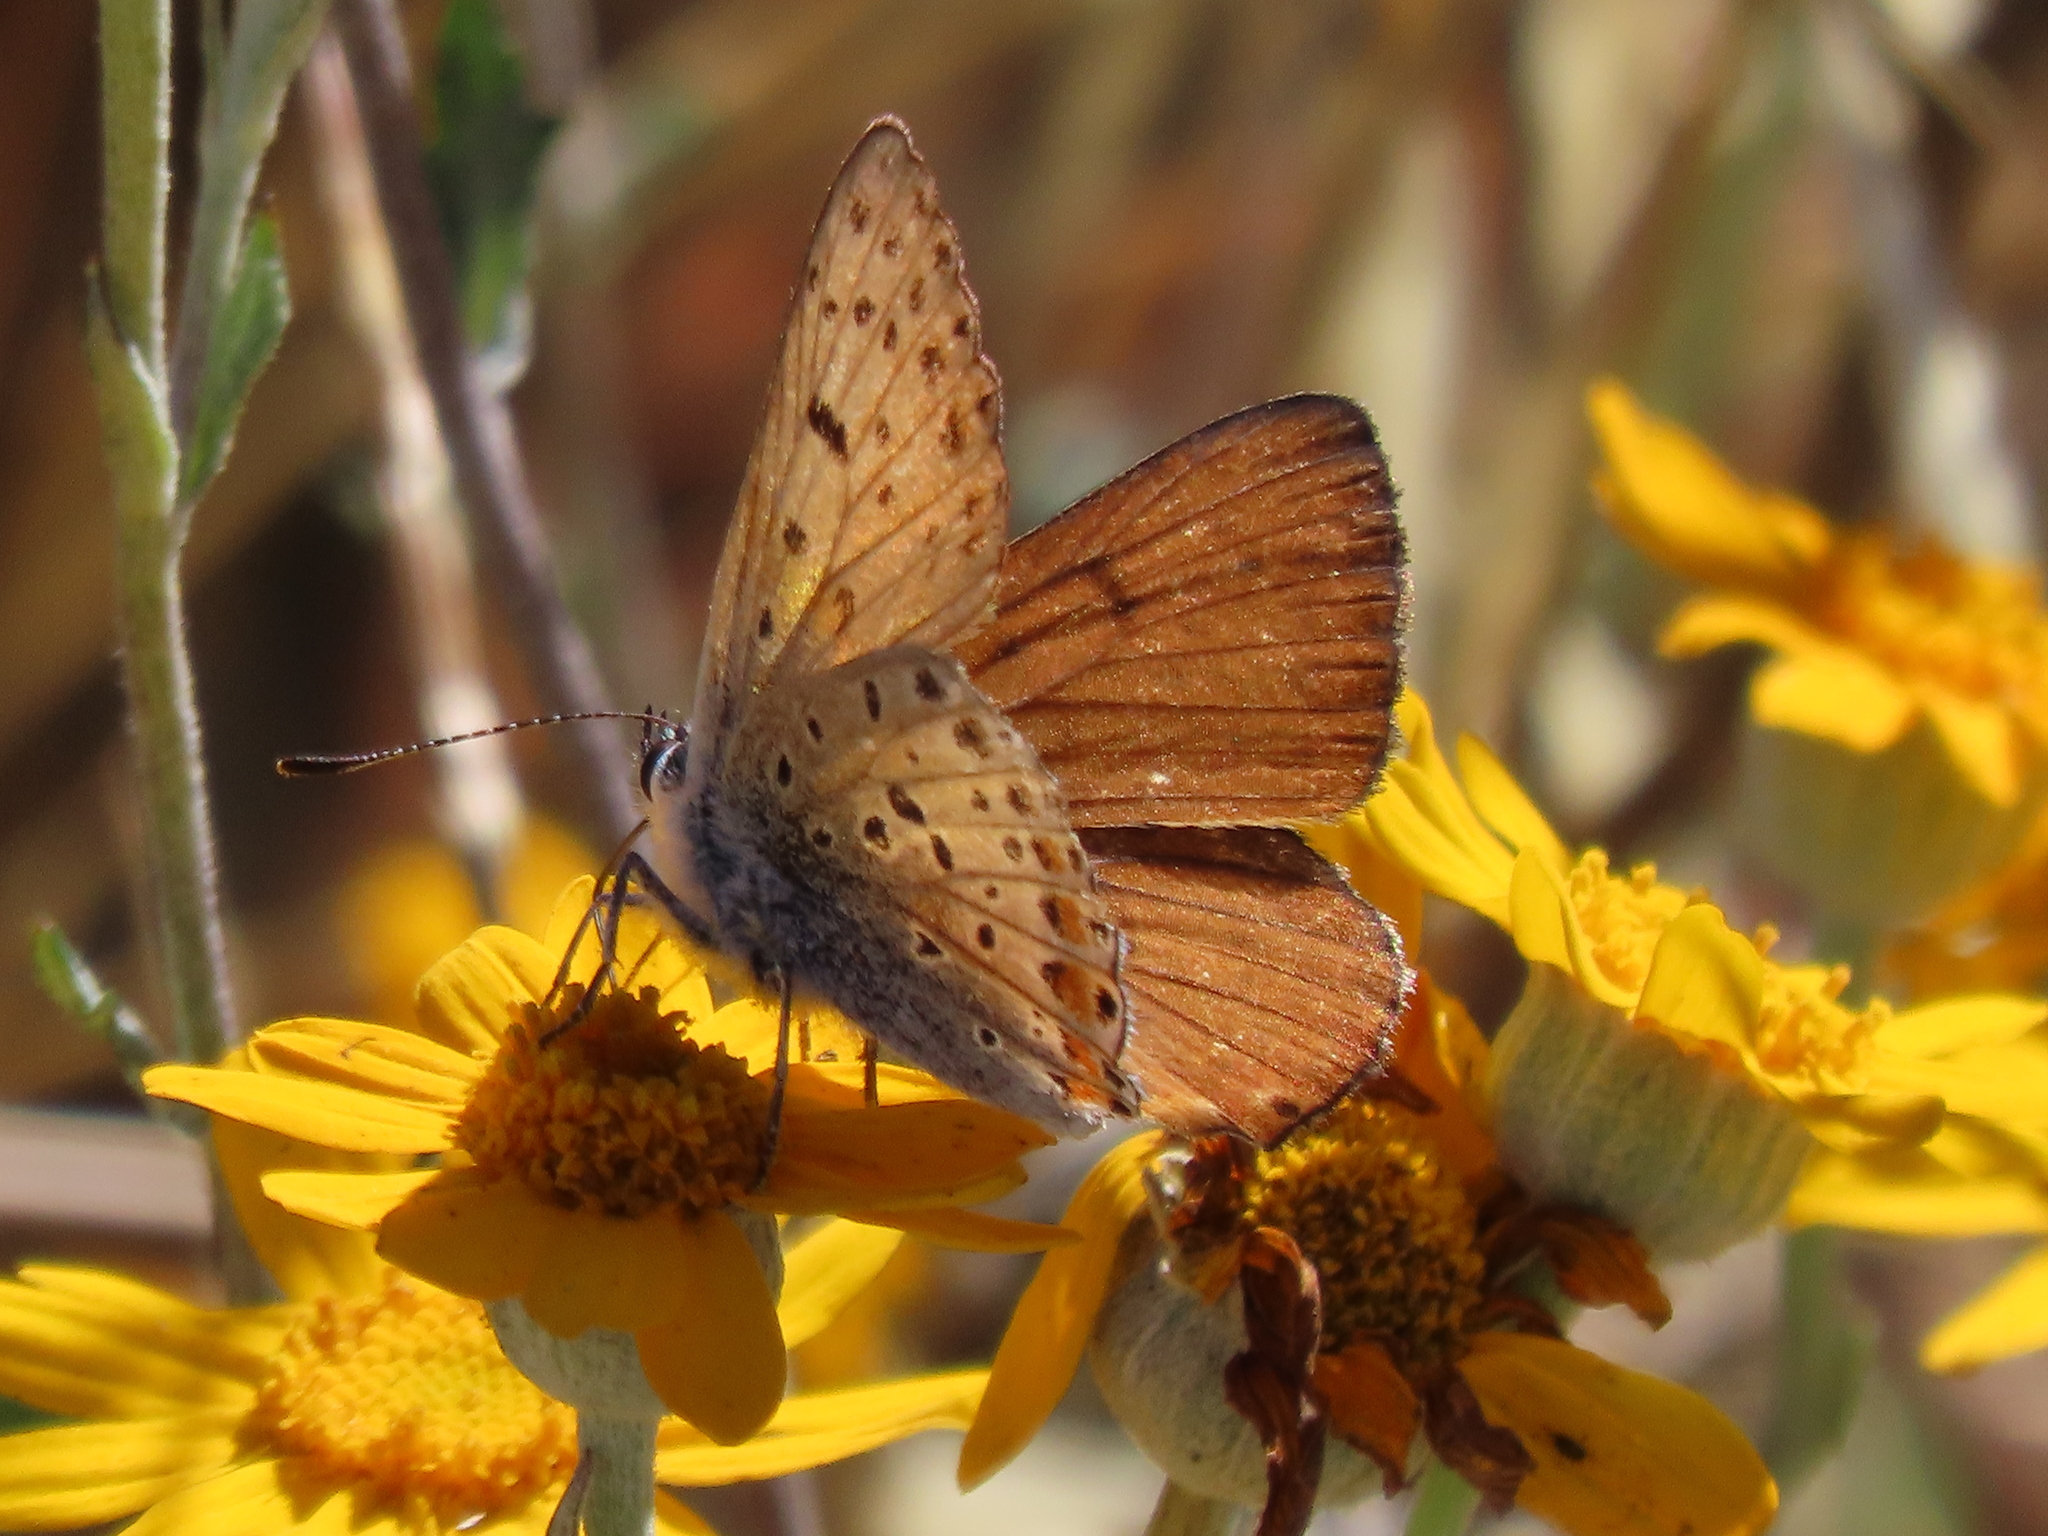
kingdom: Animalia
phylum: Arthropoda
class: Insecta
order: Lepidoptera
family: Lycaenidae
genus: Tharsalea
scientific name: Tharsalea gorgon
